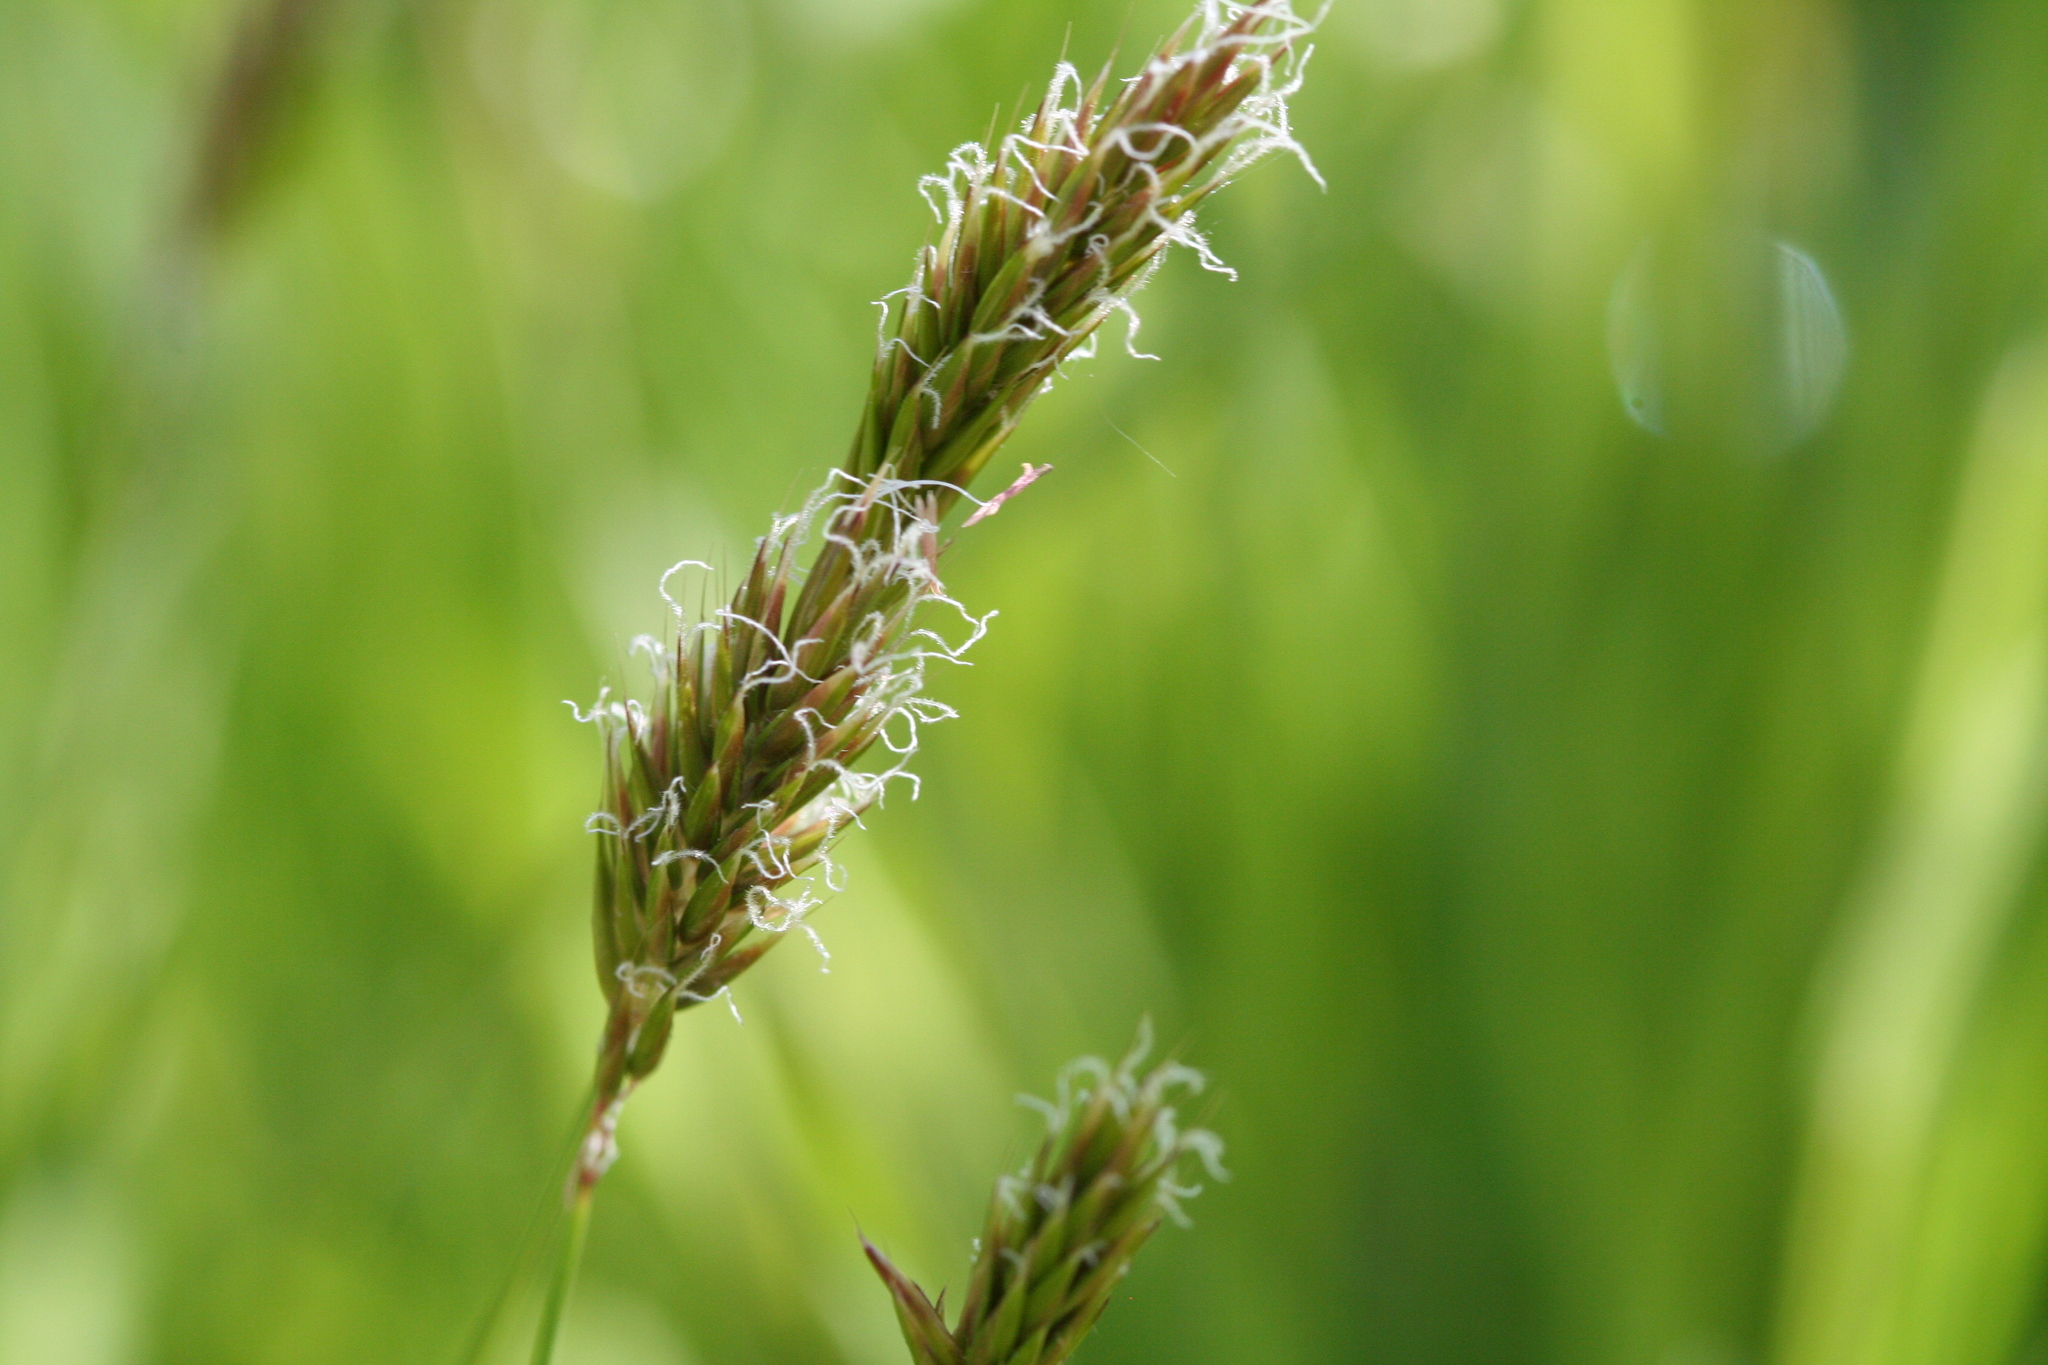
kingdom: Plantae
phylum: Tracheophyta
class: Liliopsida
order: Poales
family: Poaceae
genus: Anthoxanthum
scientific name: Anthoxanthum odoratum
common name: Sweet vernalgrass
